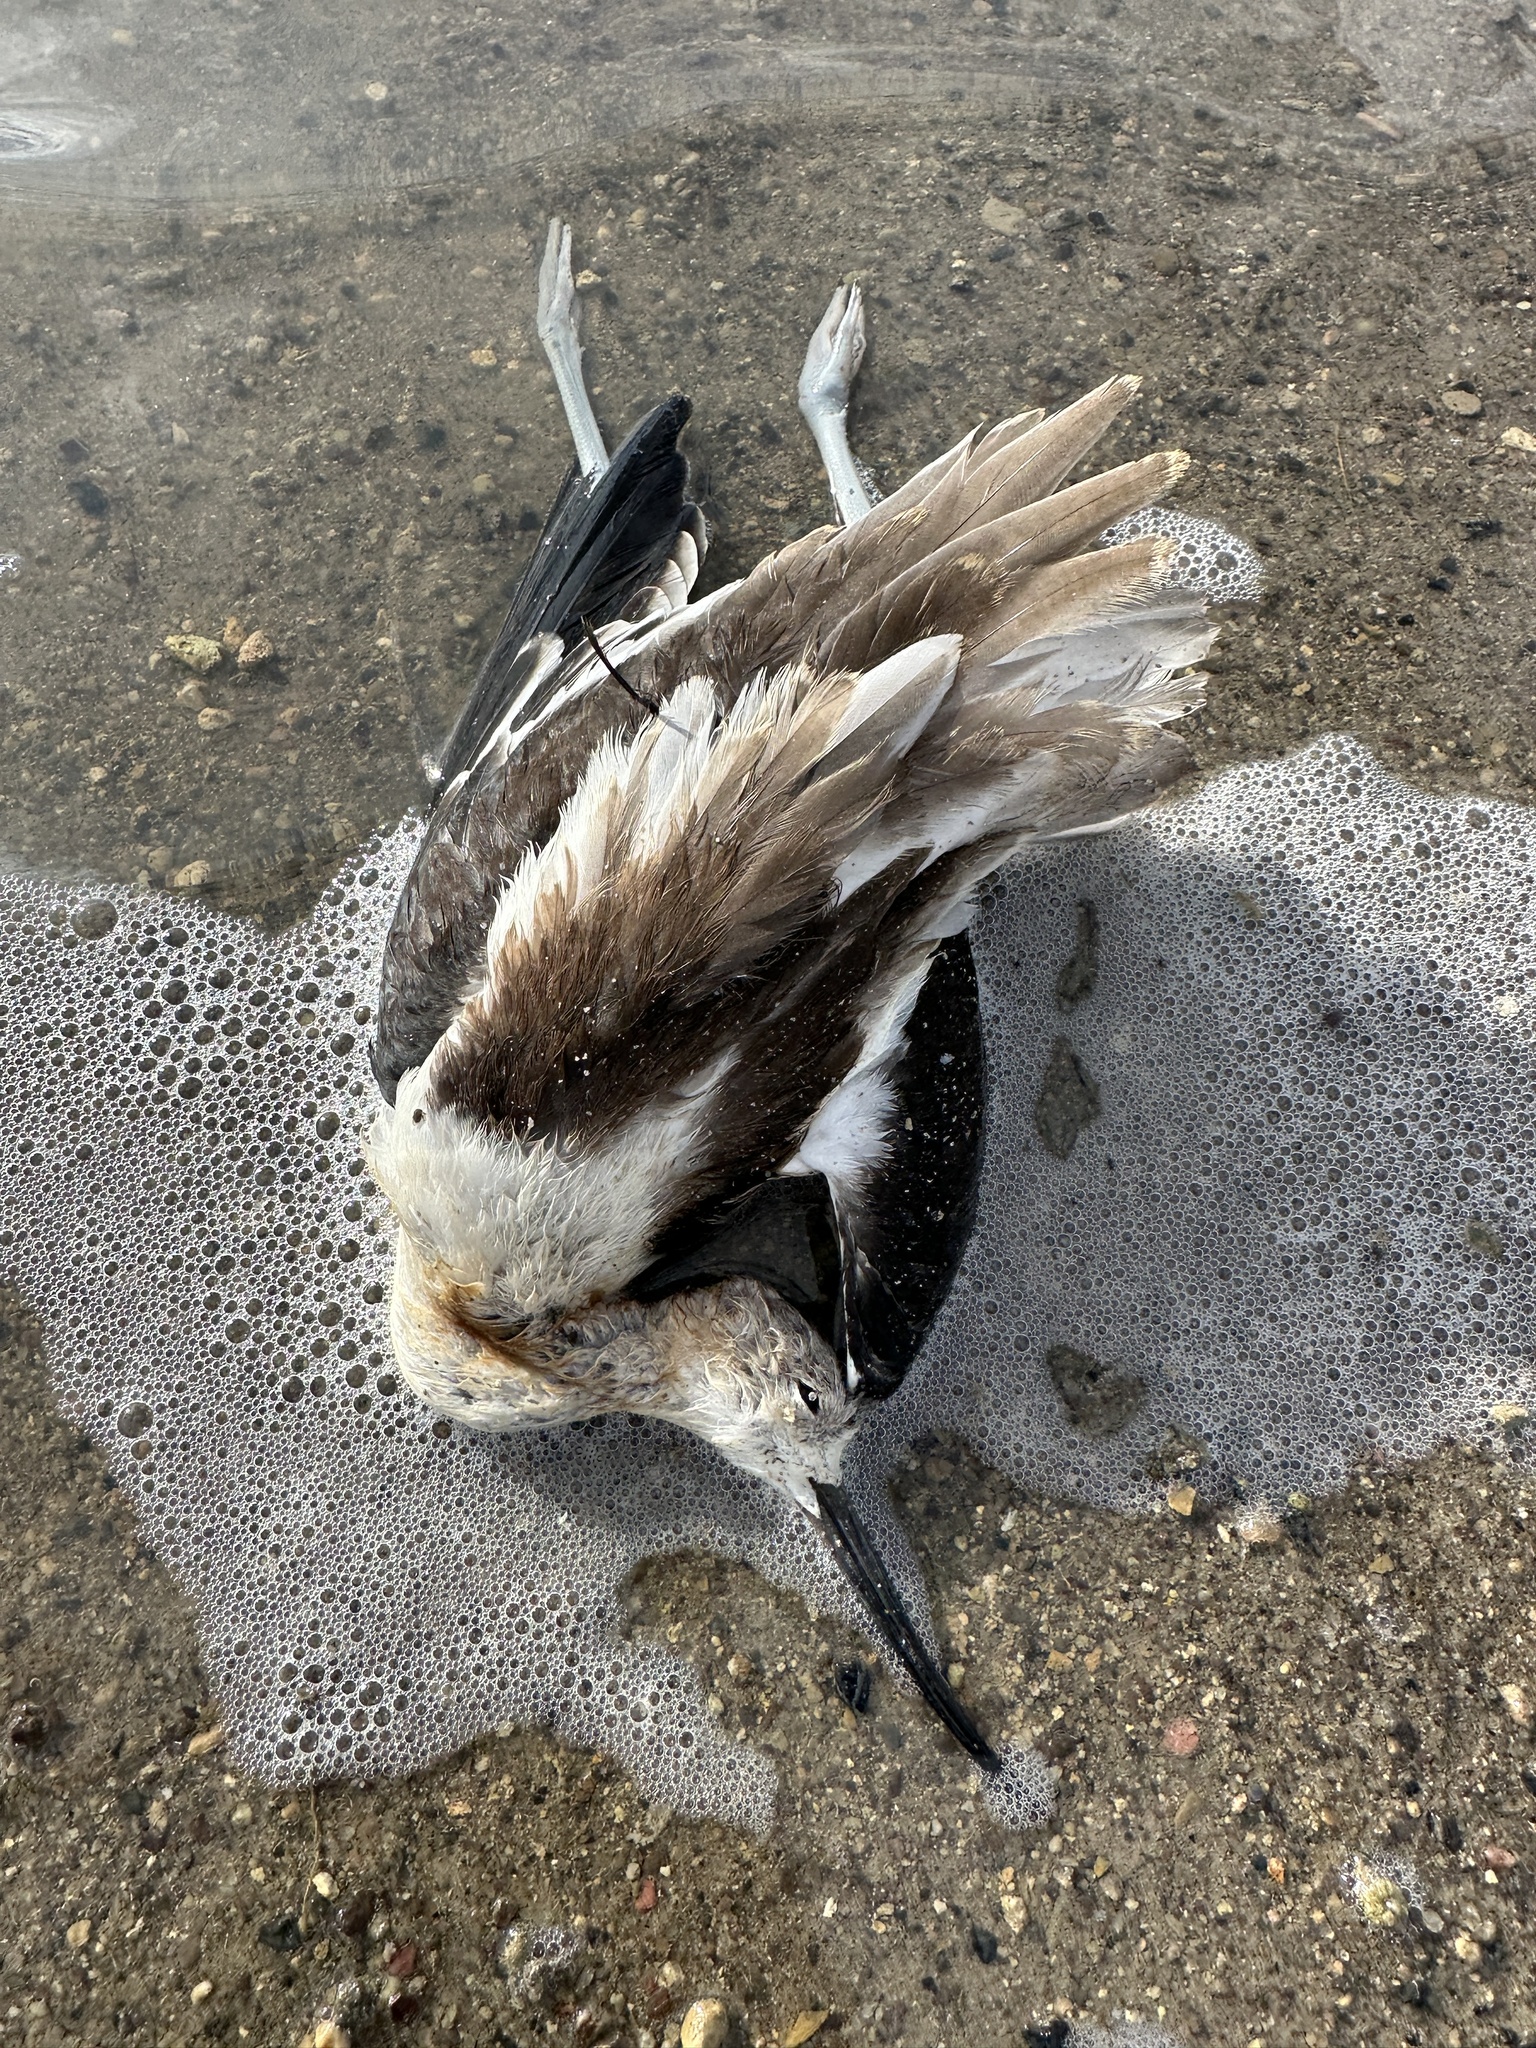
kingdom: Animalia
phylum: Chordata
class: Aves
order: Charadriiformes
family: Recurvirostridae
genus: Recurvirostra
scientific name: Recurvirostra americana
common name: American avocet
